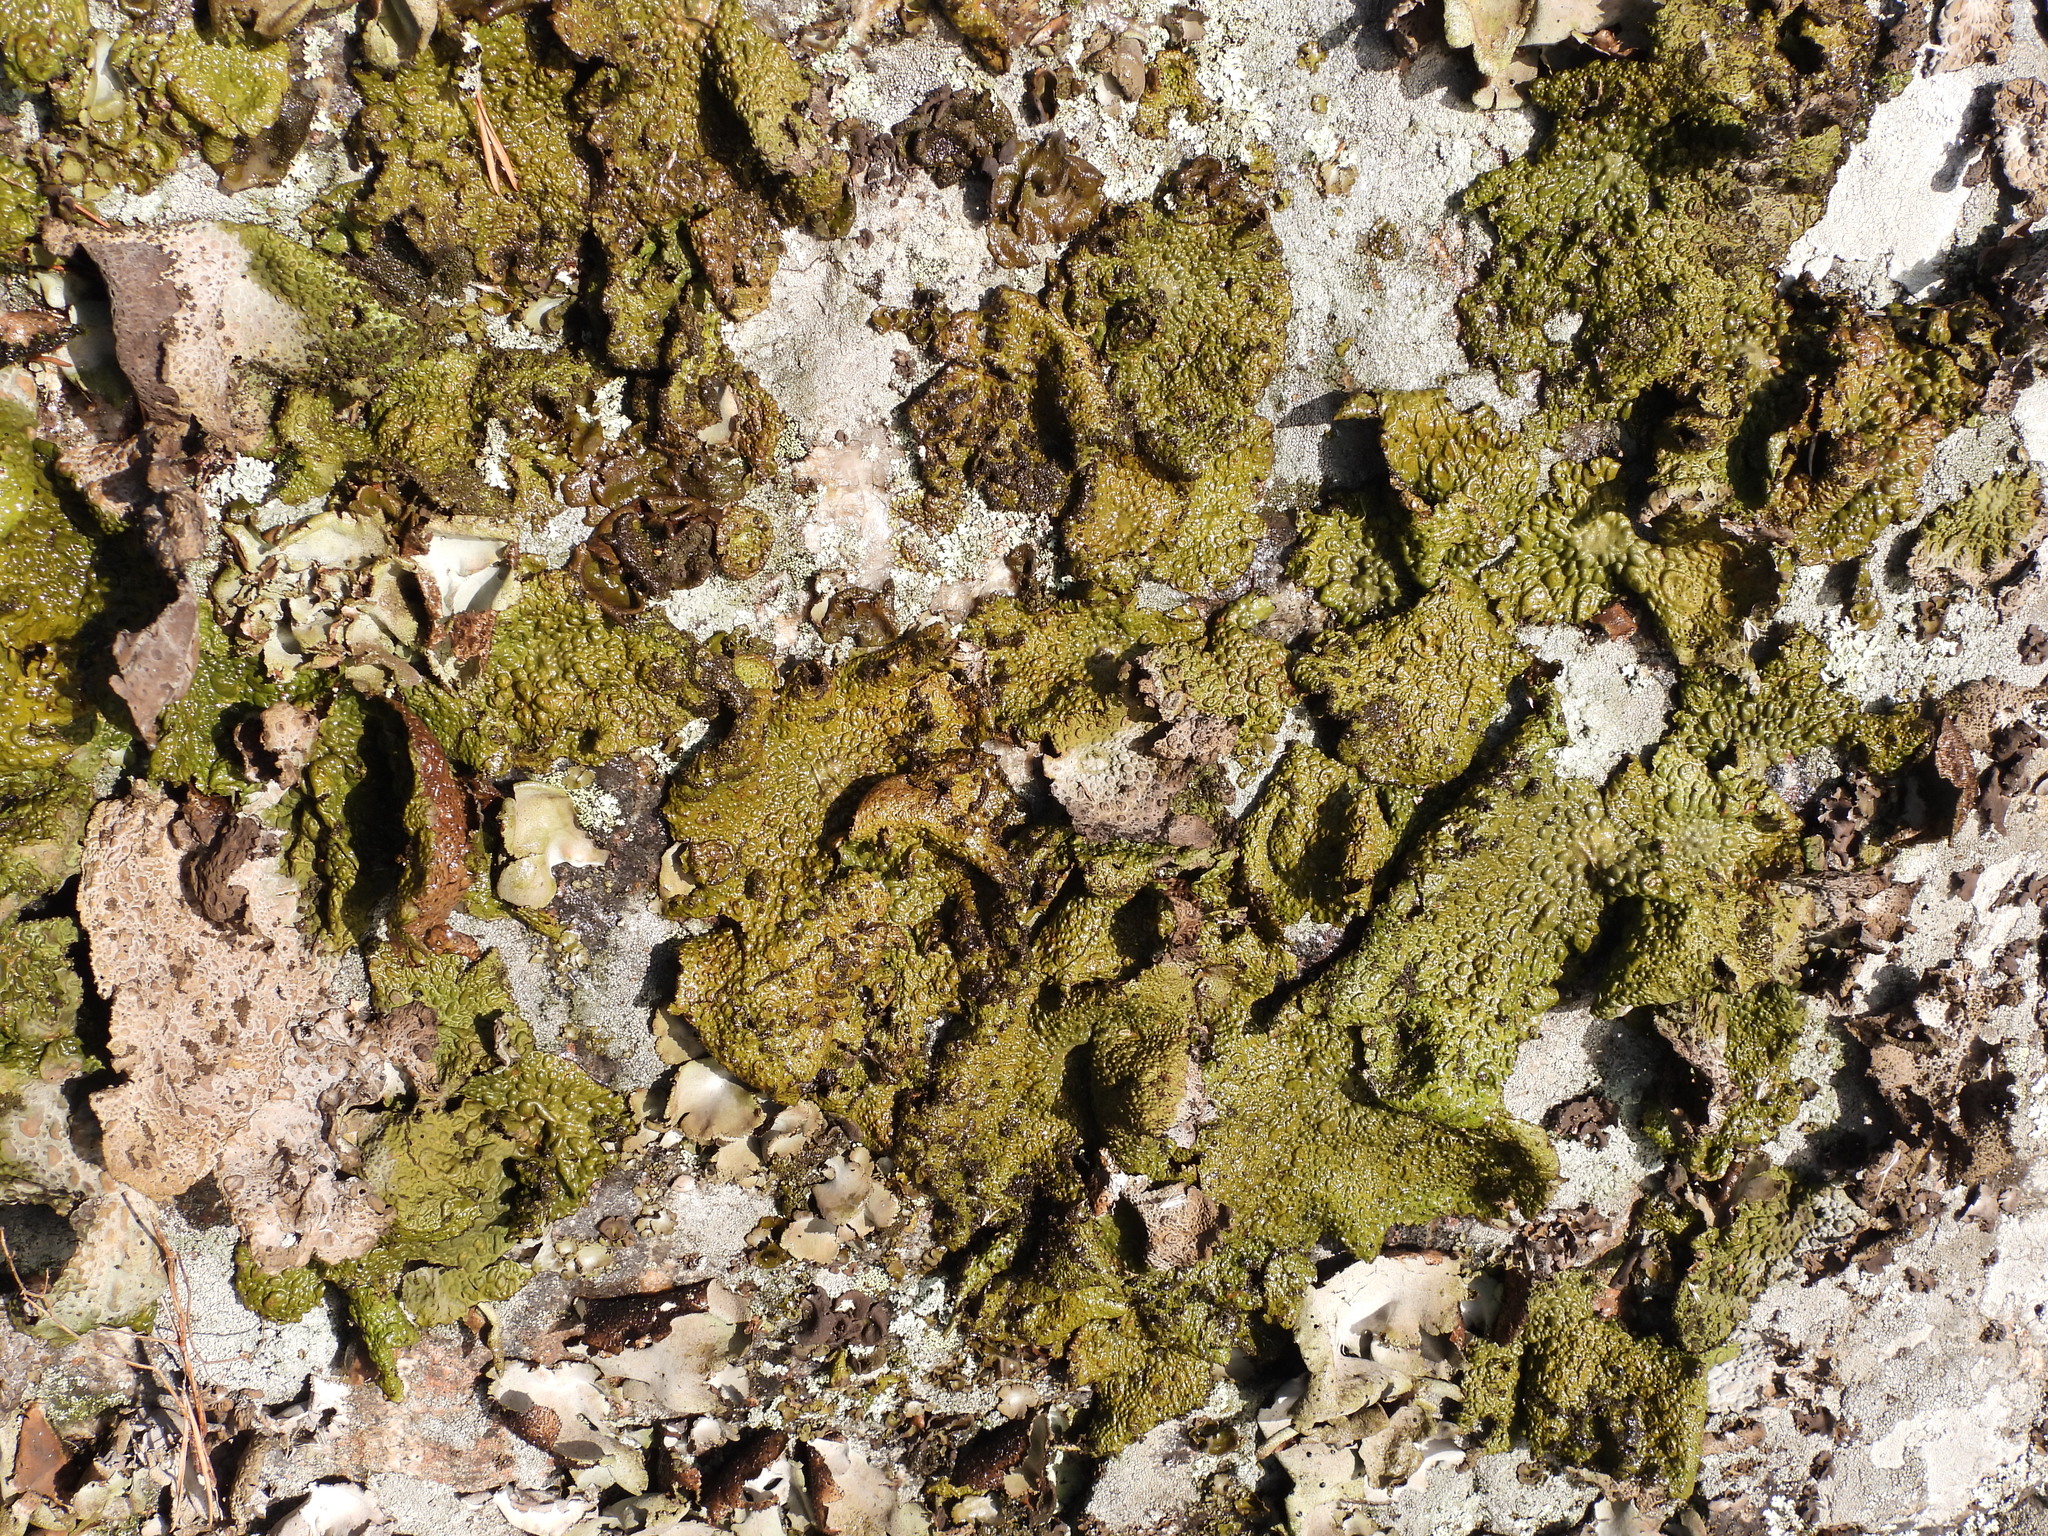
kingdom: Fungi
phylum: Ascomycota
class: Lecanoromycetes
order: Umbilicariales
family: Umbilicariaceae
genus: Lasallia
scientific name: Lasallia pustulata
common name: Blistered toadskin lichen
